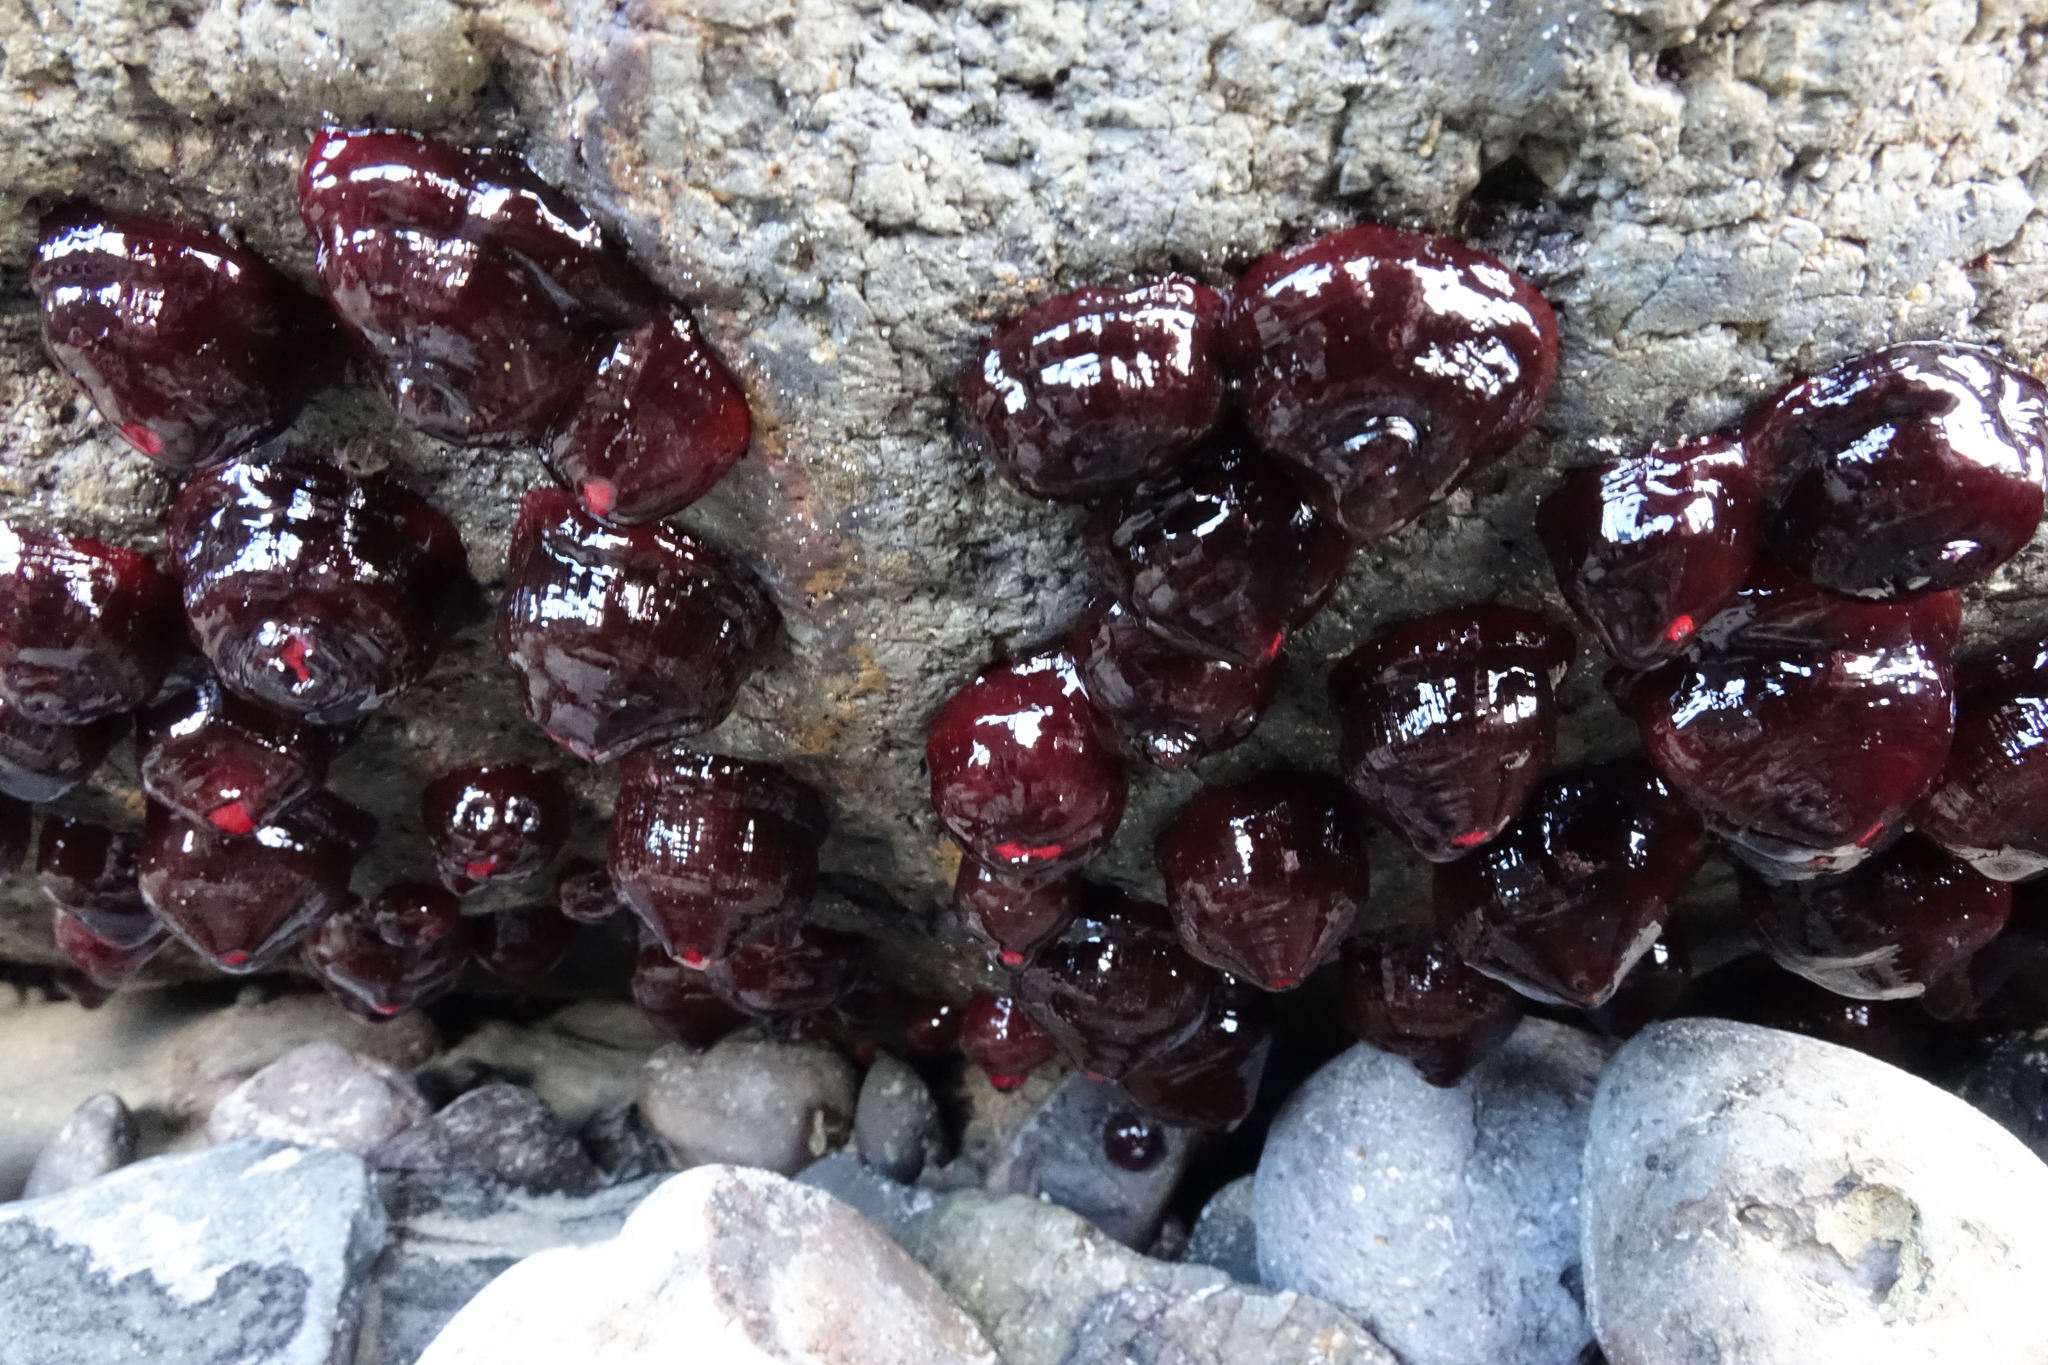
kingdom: Animalia
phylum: Cnidaria
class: Anthozoa
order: Actiniaria
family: Actiniidae
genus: Actinia
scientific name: Actinia tenebrosa
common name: Waratah anemone
